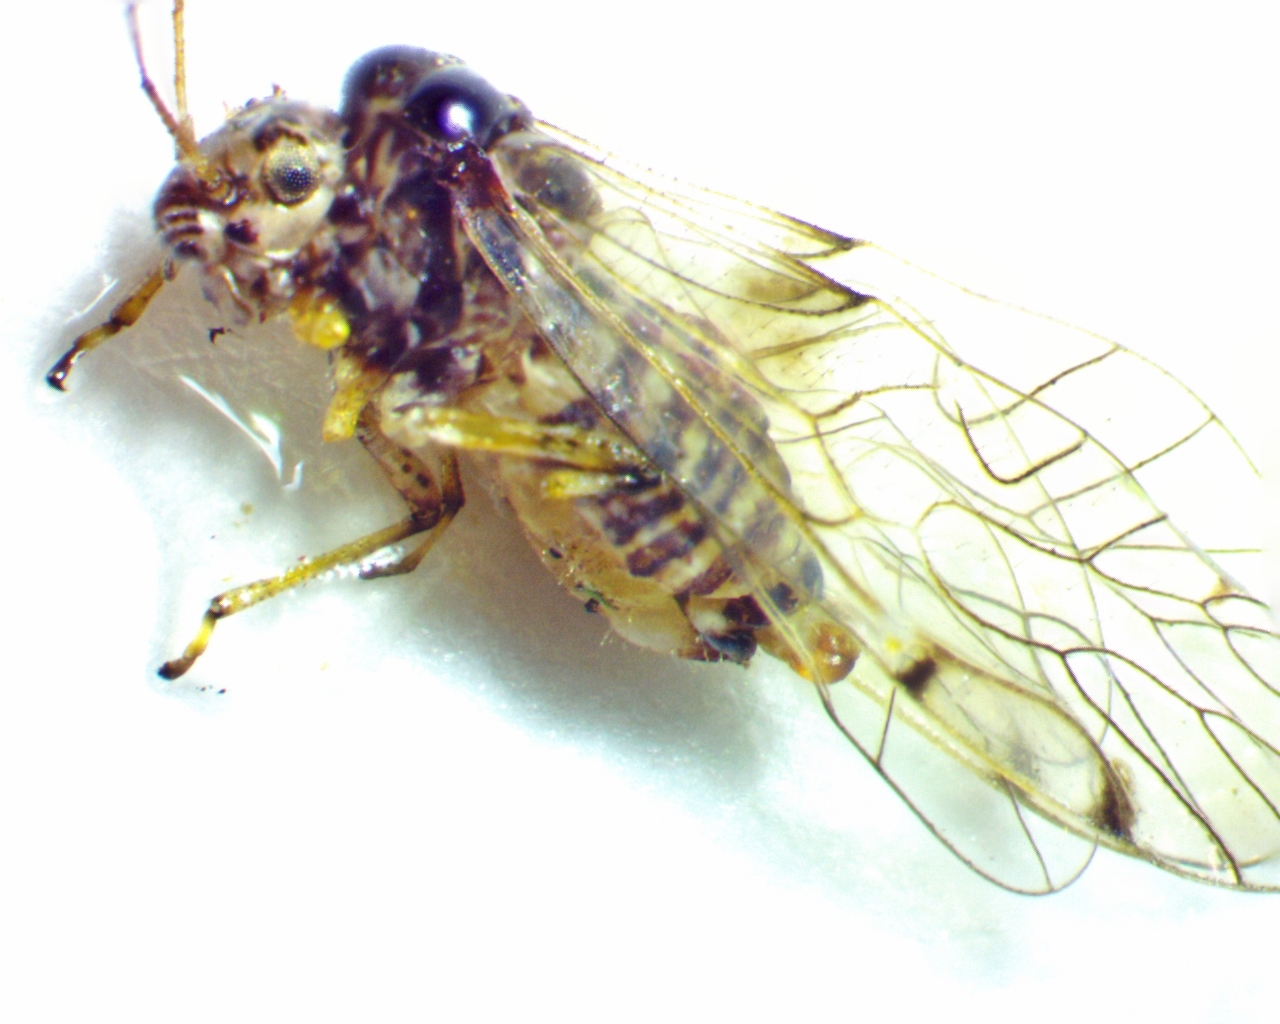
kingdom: Animalia
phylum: Arthropoda
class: Insecta
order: Psocodea
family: Dasydemellidae
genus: Teliapsocus
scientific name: Teliapsocus conterminus
